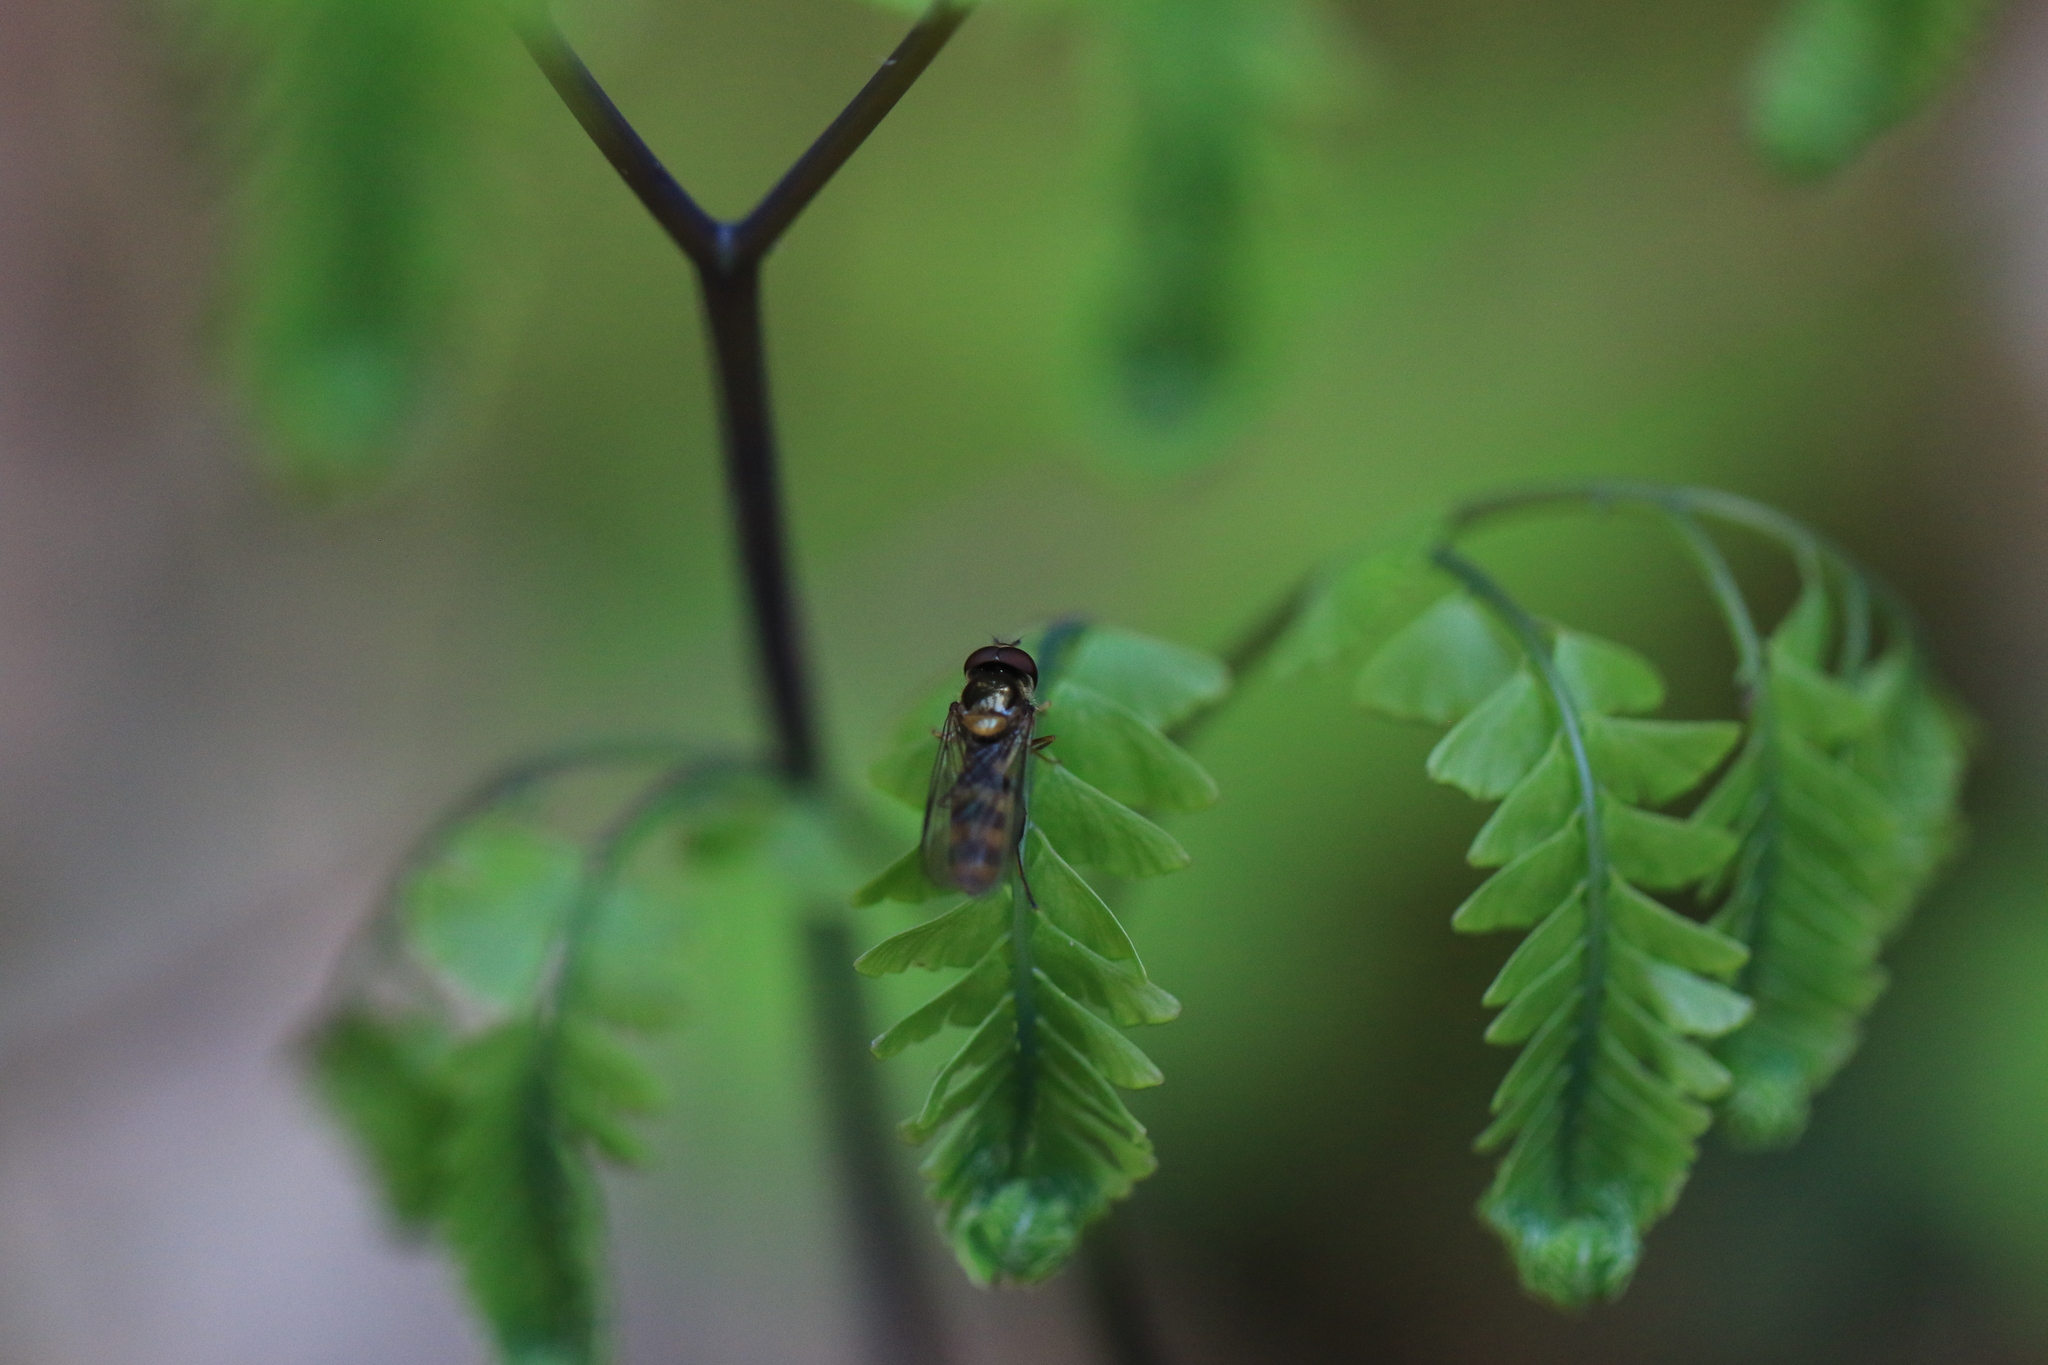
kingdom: Animalia
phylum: Arthropoda
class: Insecta
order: Diptera
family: Syrphidae
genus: Meliscaeva
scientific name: Meliscaeva cinctella
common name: American thintail fly
